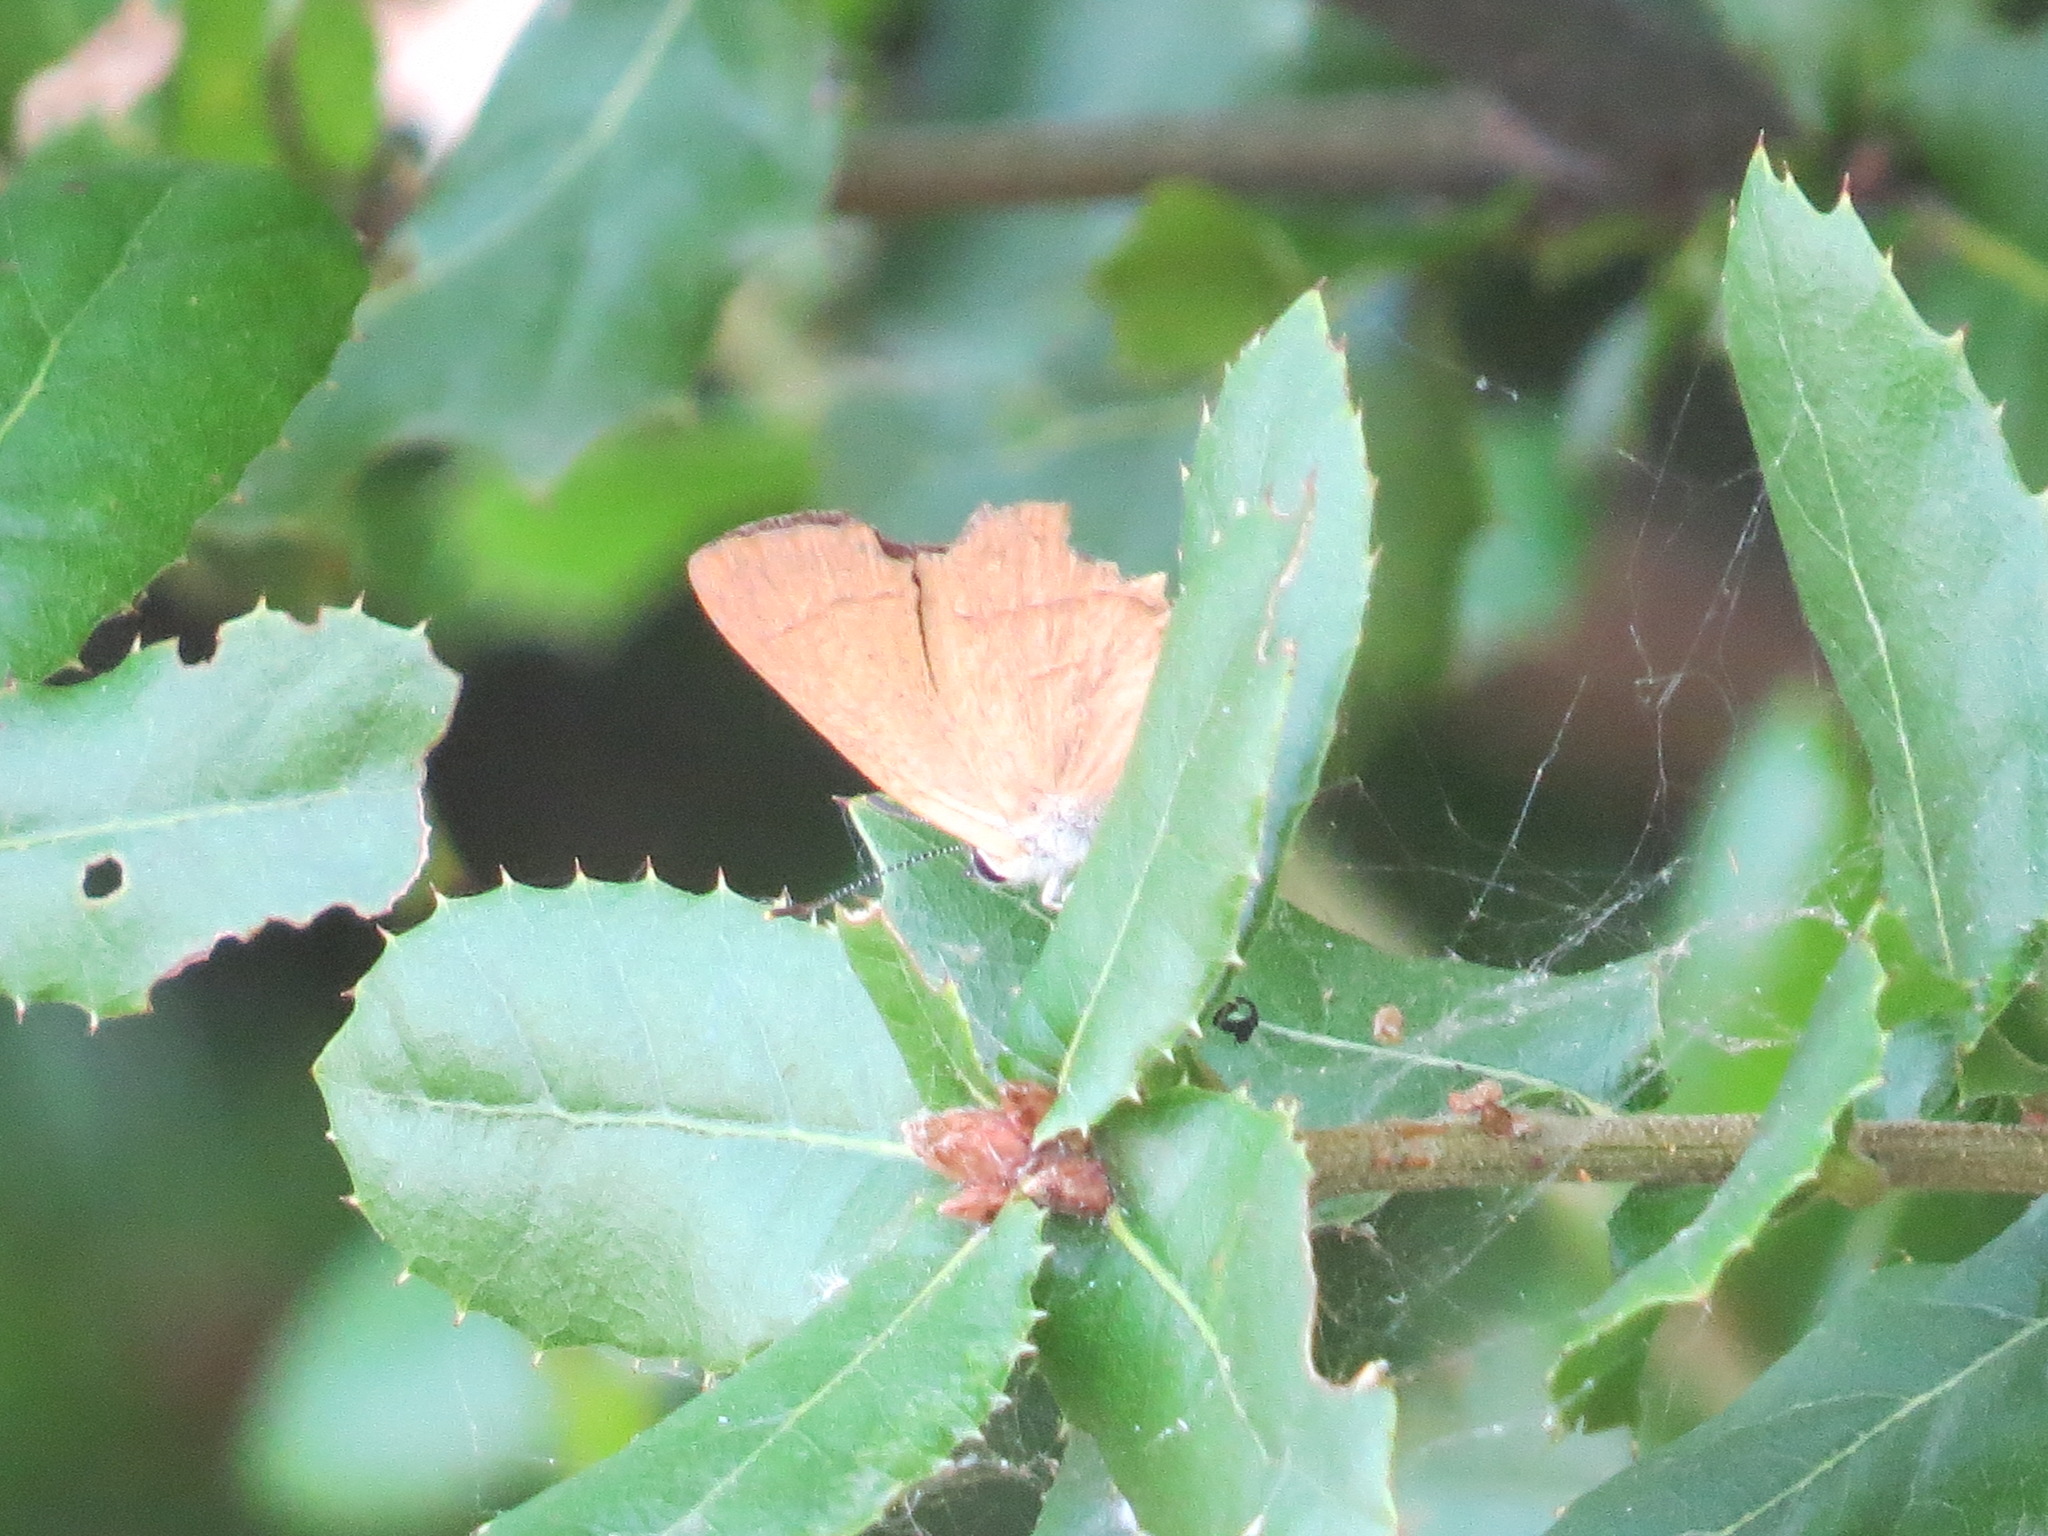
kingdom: Animalia
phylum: Arthropoda
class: Insecta
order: Lepidoptera
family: Lycaenidae
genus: Habrodais
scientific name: Habrodais grunus
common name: Golden hairstreak
